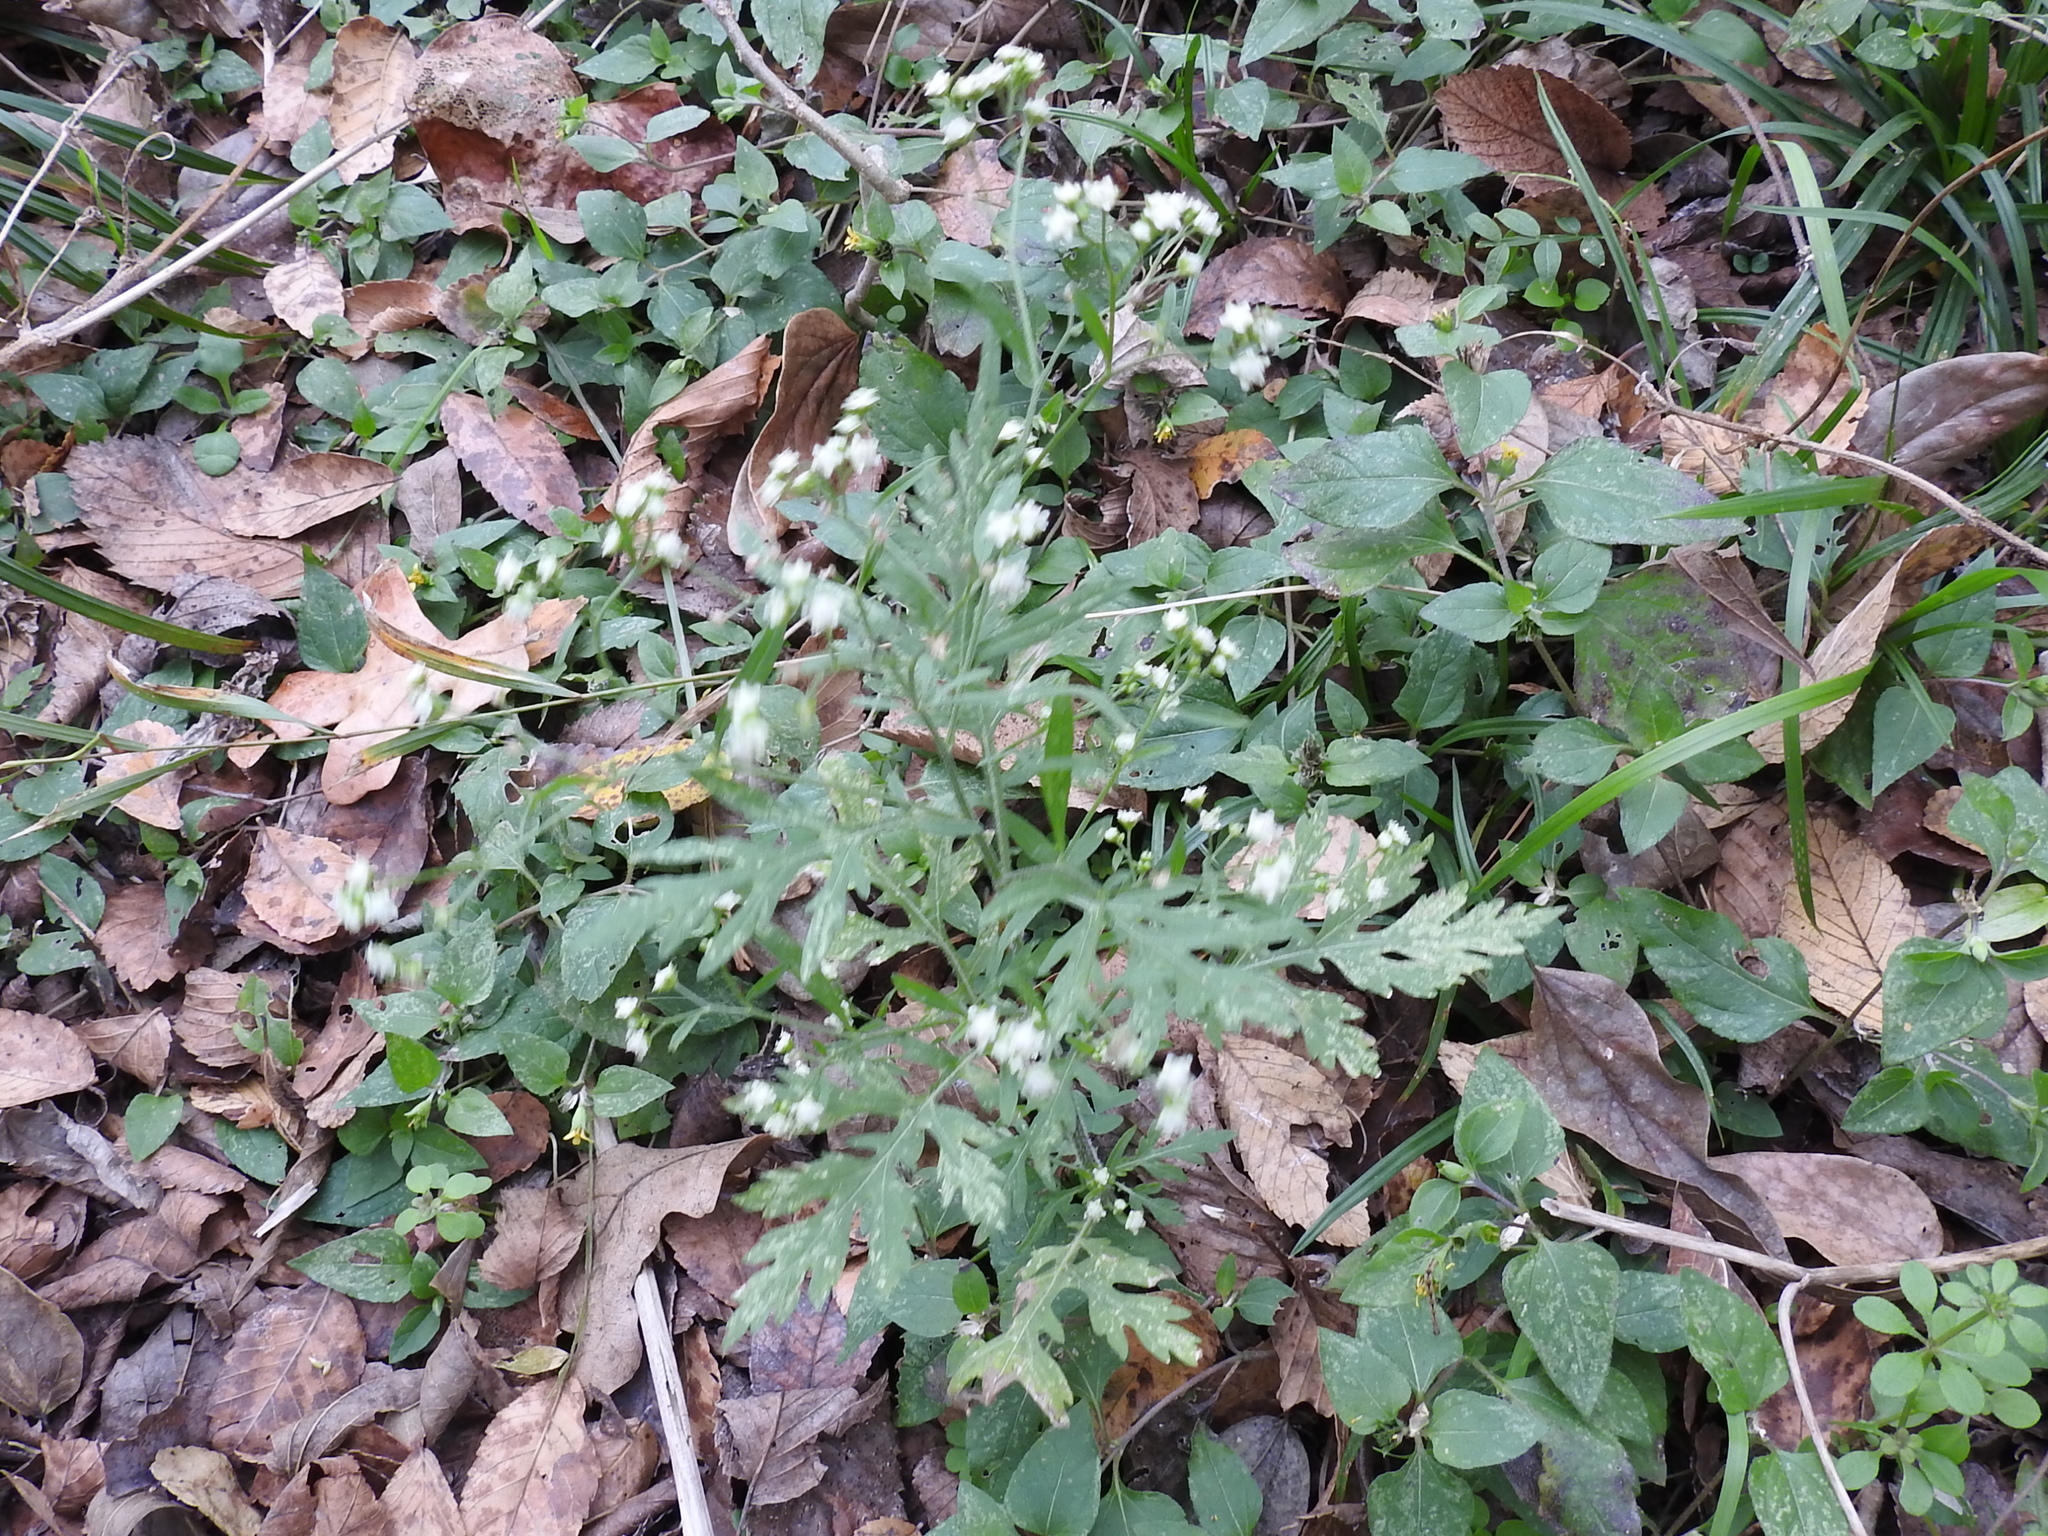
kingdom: Plantae
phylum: Tracheophyta
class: Magnoliopsida
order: Asterales
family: Asteraceae
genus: Parthenium
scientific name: Parthenium hysterophorus
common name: Santa maria feverfew
